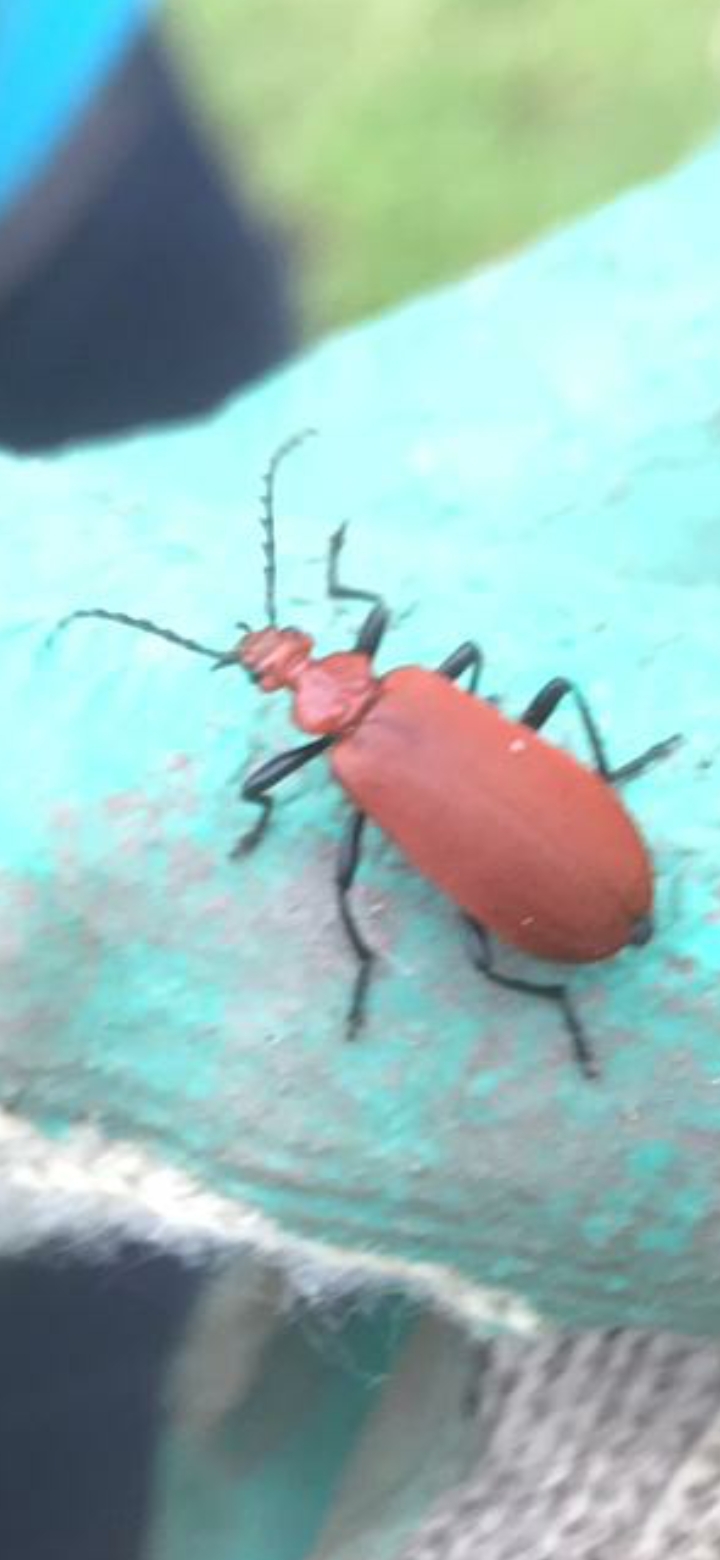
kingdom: Animalia
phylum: Arthropoda
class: Insecta
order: Coleoptera
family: Pyrochroidae
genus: Pyrochroa
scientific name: Pyrochroa serraticornis
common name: Red-headed cardinal beetle
